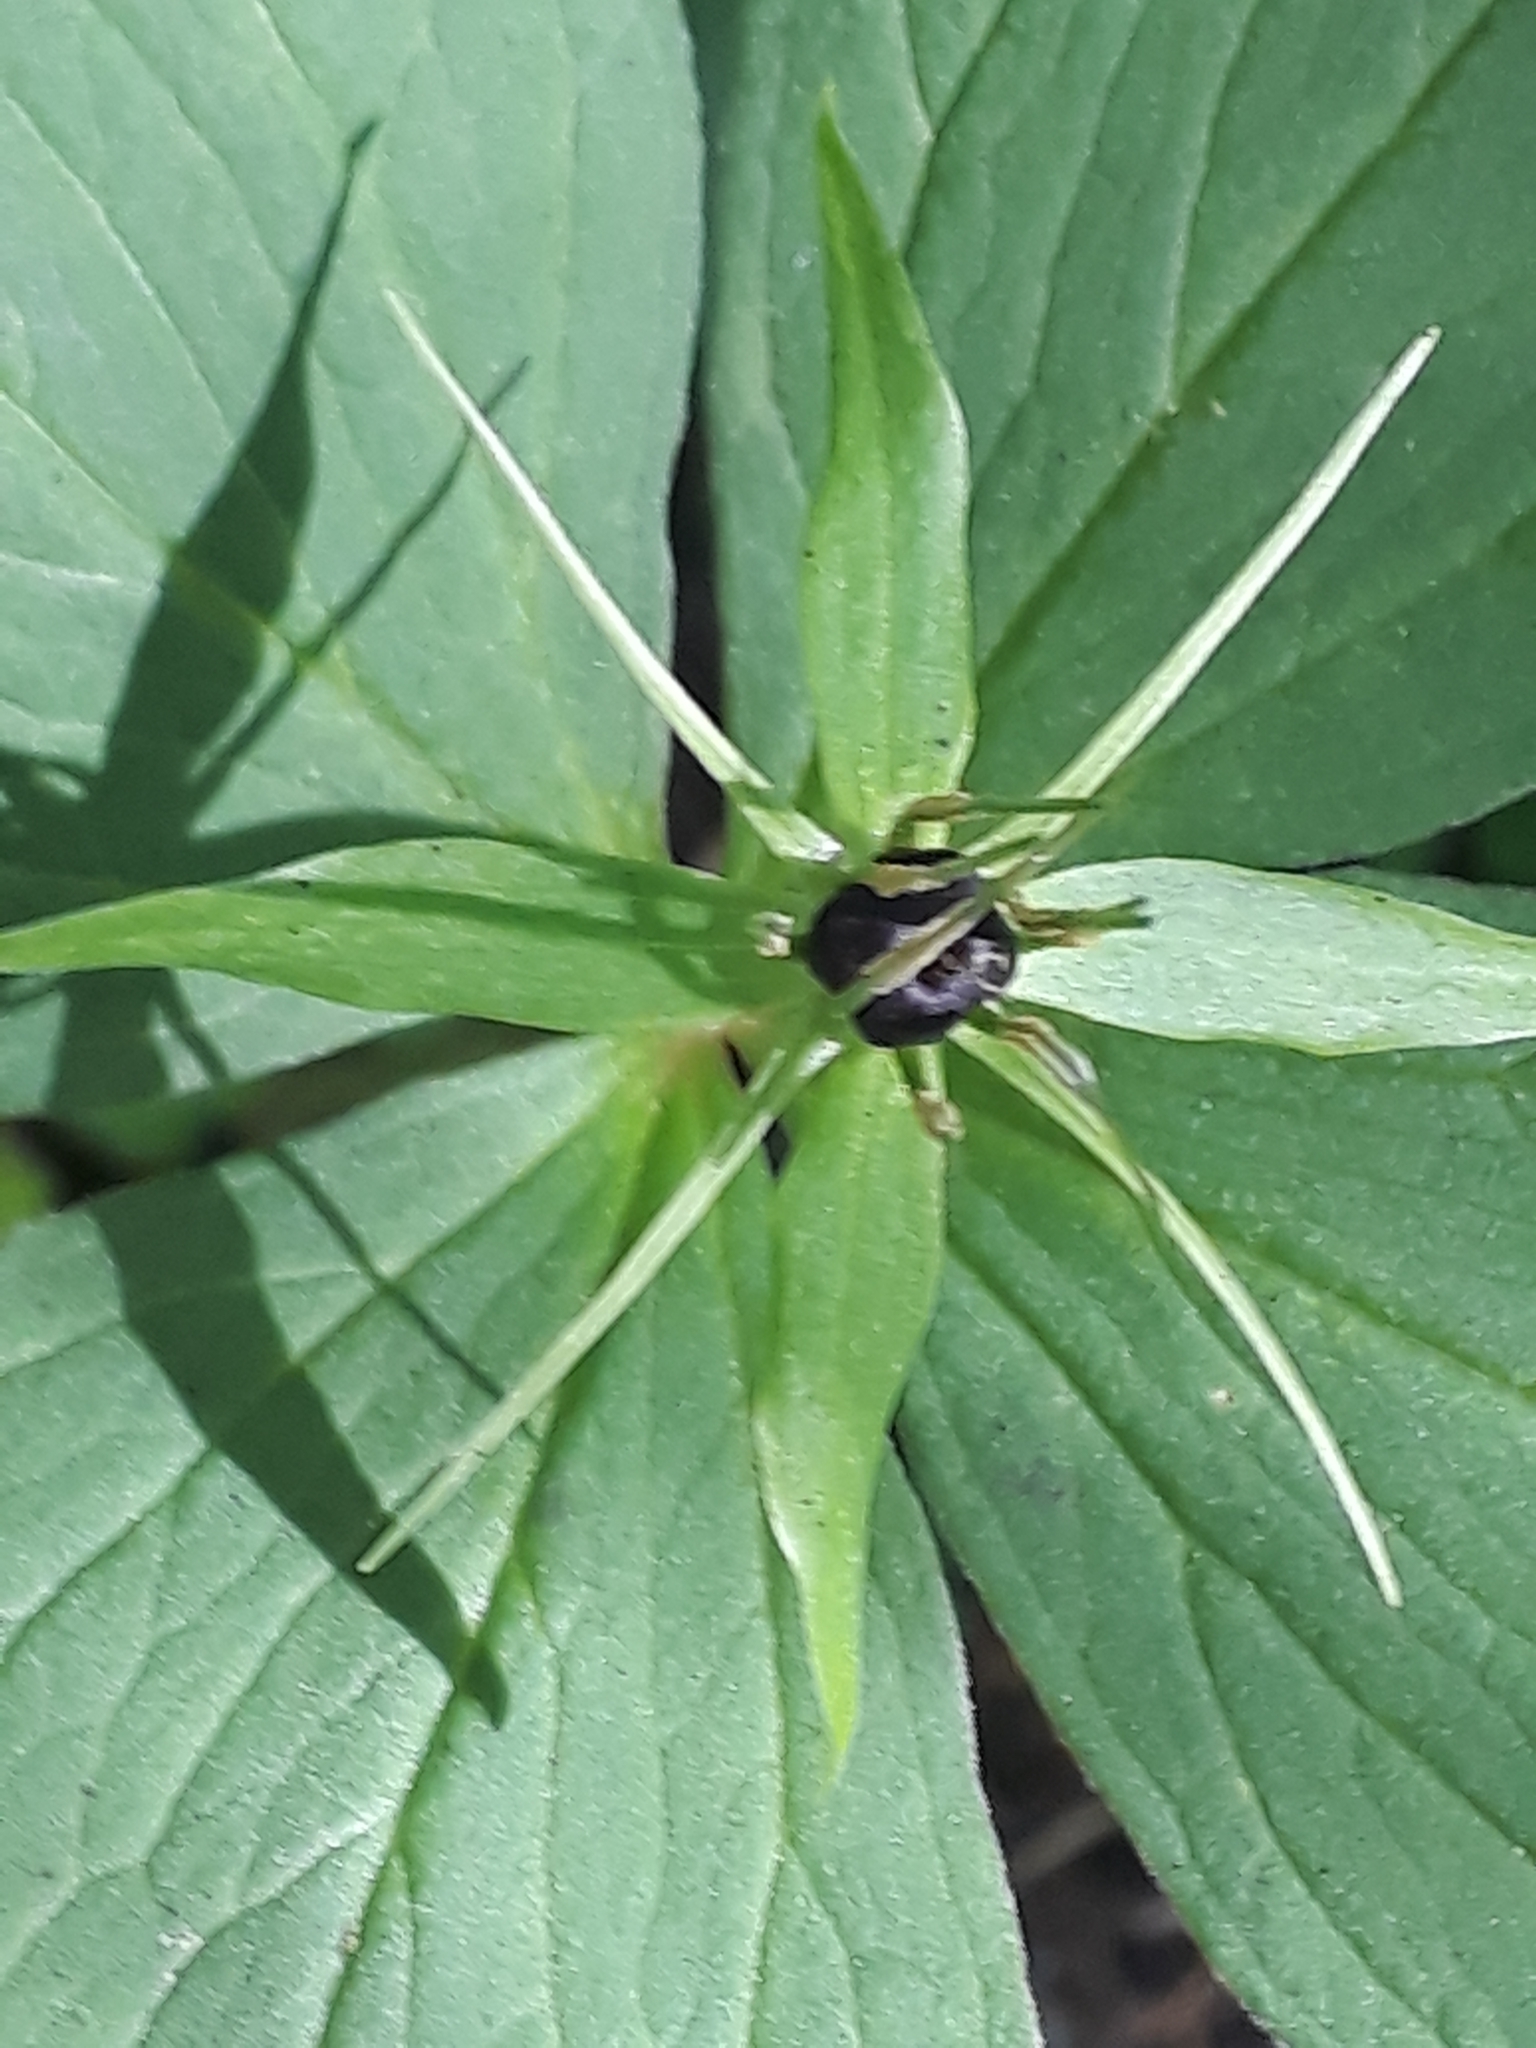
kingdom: Plantae
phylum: Tracheophyta
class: Liliopsida
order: Liliales
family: Melanthiaceae
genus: Paris
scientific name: Paris quadrifolia
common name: Herb-paris
